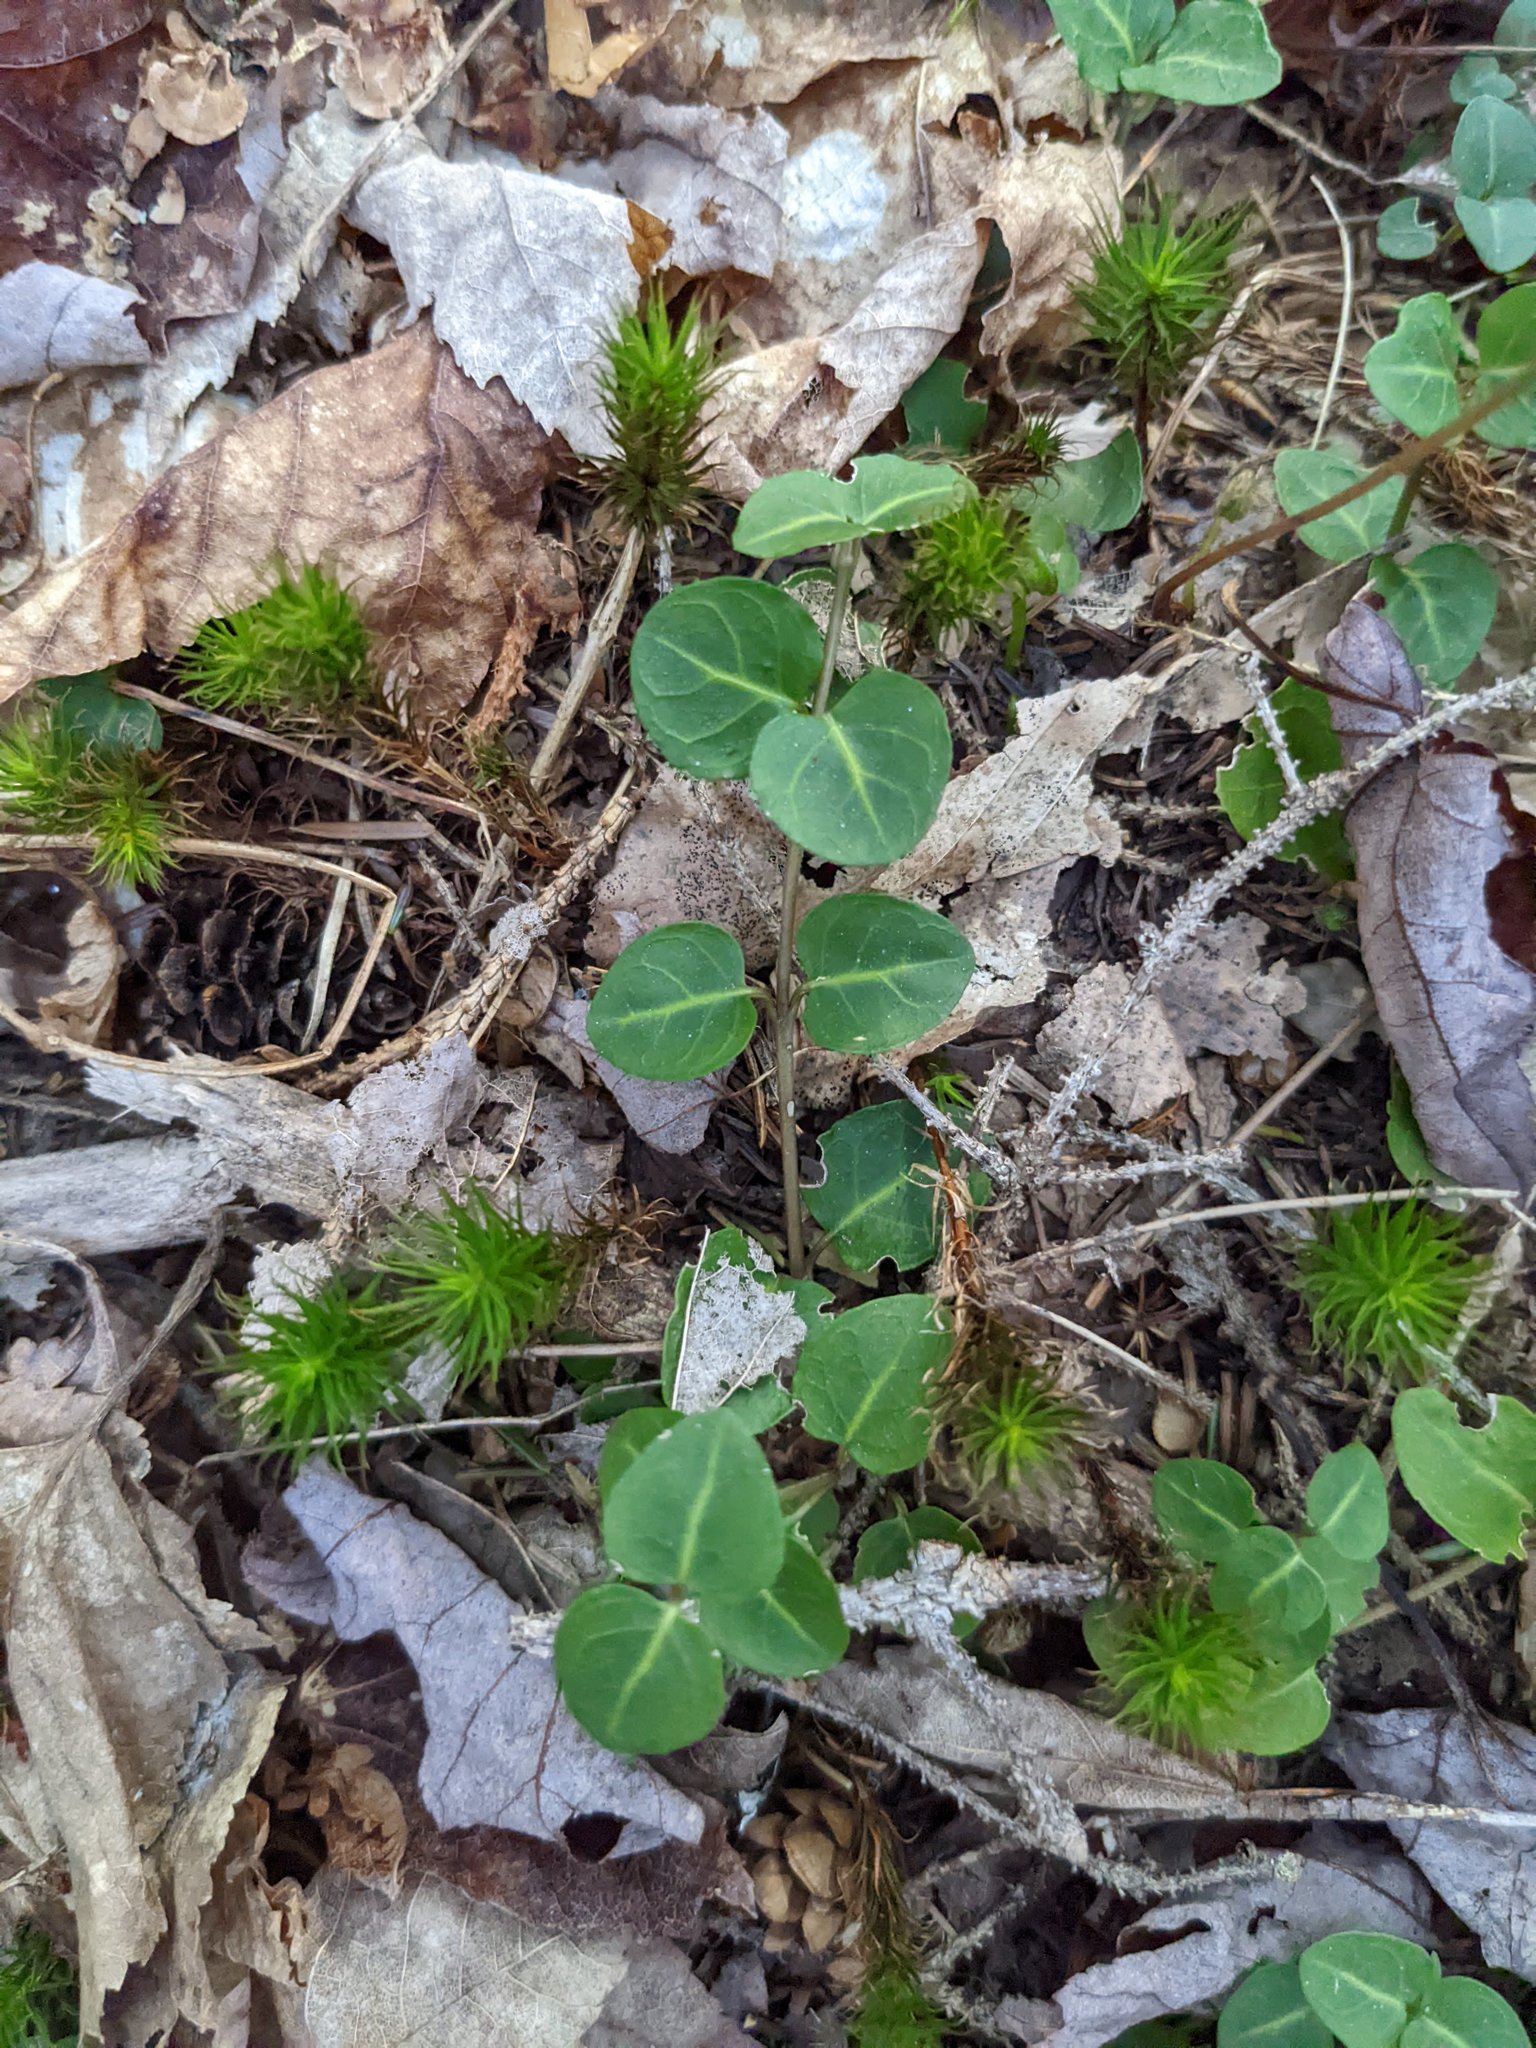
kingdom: Plantae
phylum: Tracheophyta
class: Magnoliopsida
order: Gentianales
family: Rubiaceae
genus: Mitchella
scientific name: Mitchella repens
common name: Partridge-berry
